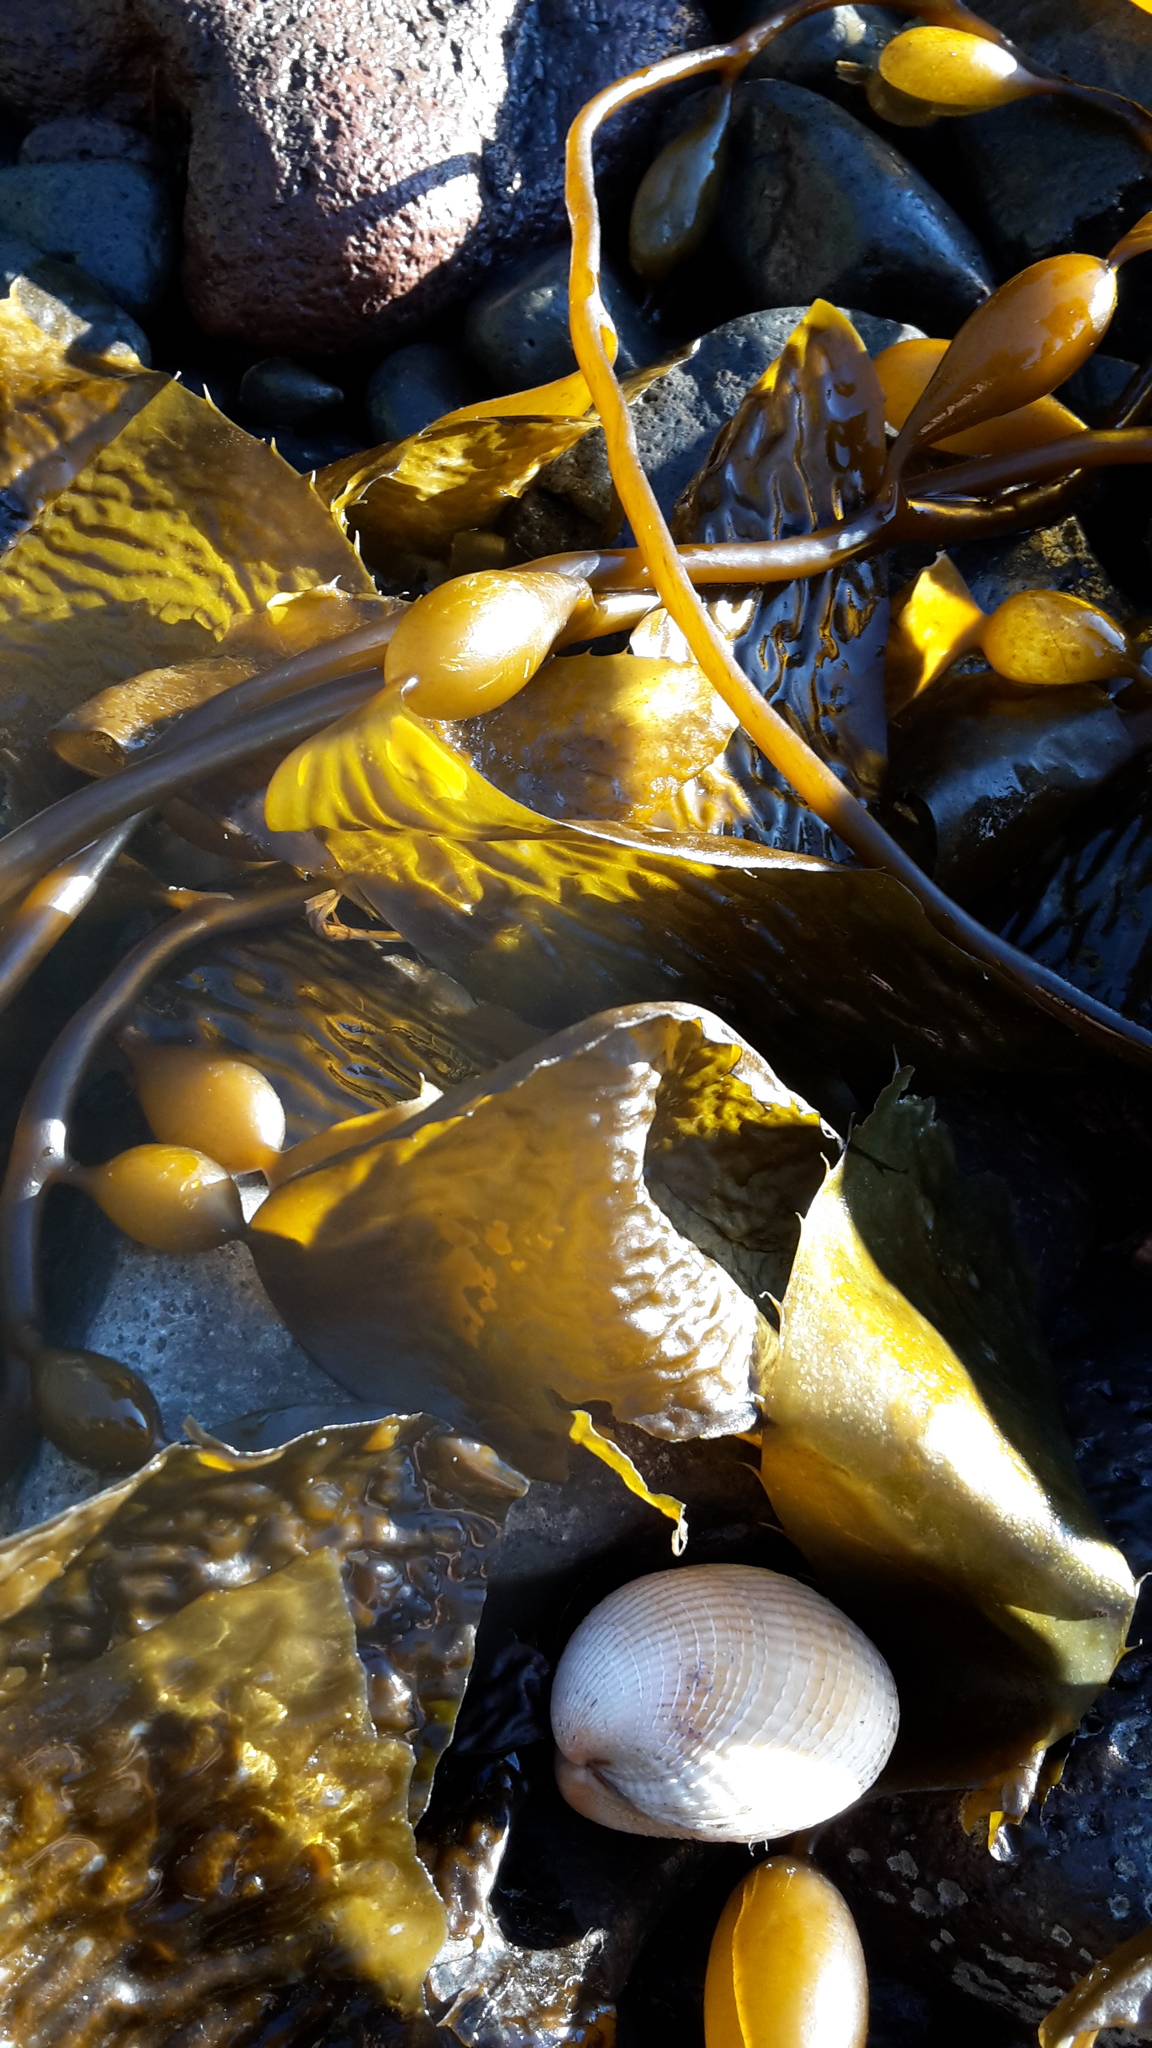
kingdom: Chromista
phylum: Ochrophyta
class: Phaeophyceae
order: Laminariales
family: Laminariaceae
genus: Macrocystis
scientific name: Macrocystis pyrifera
